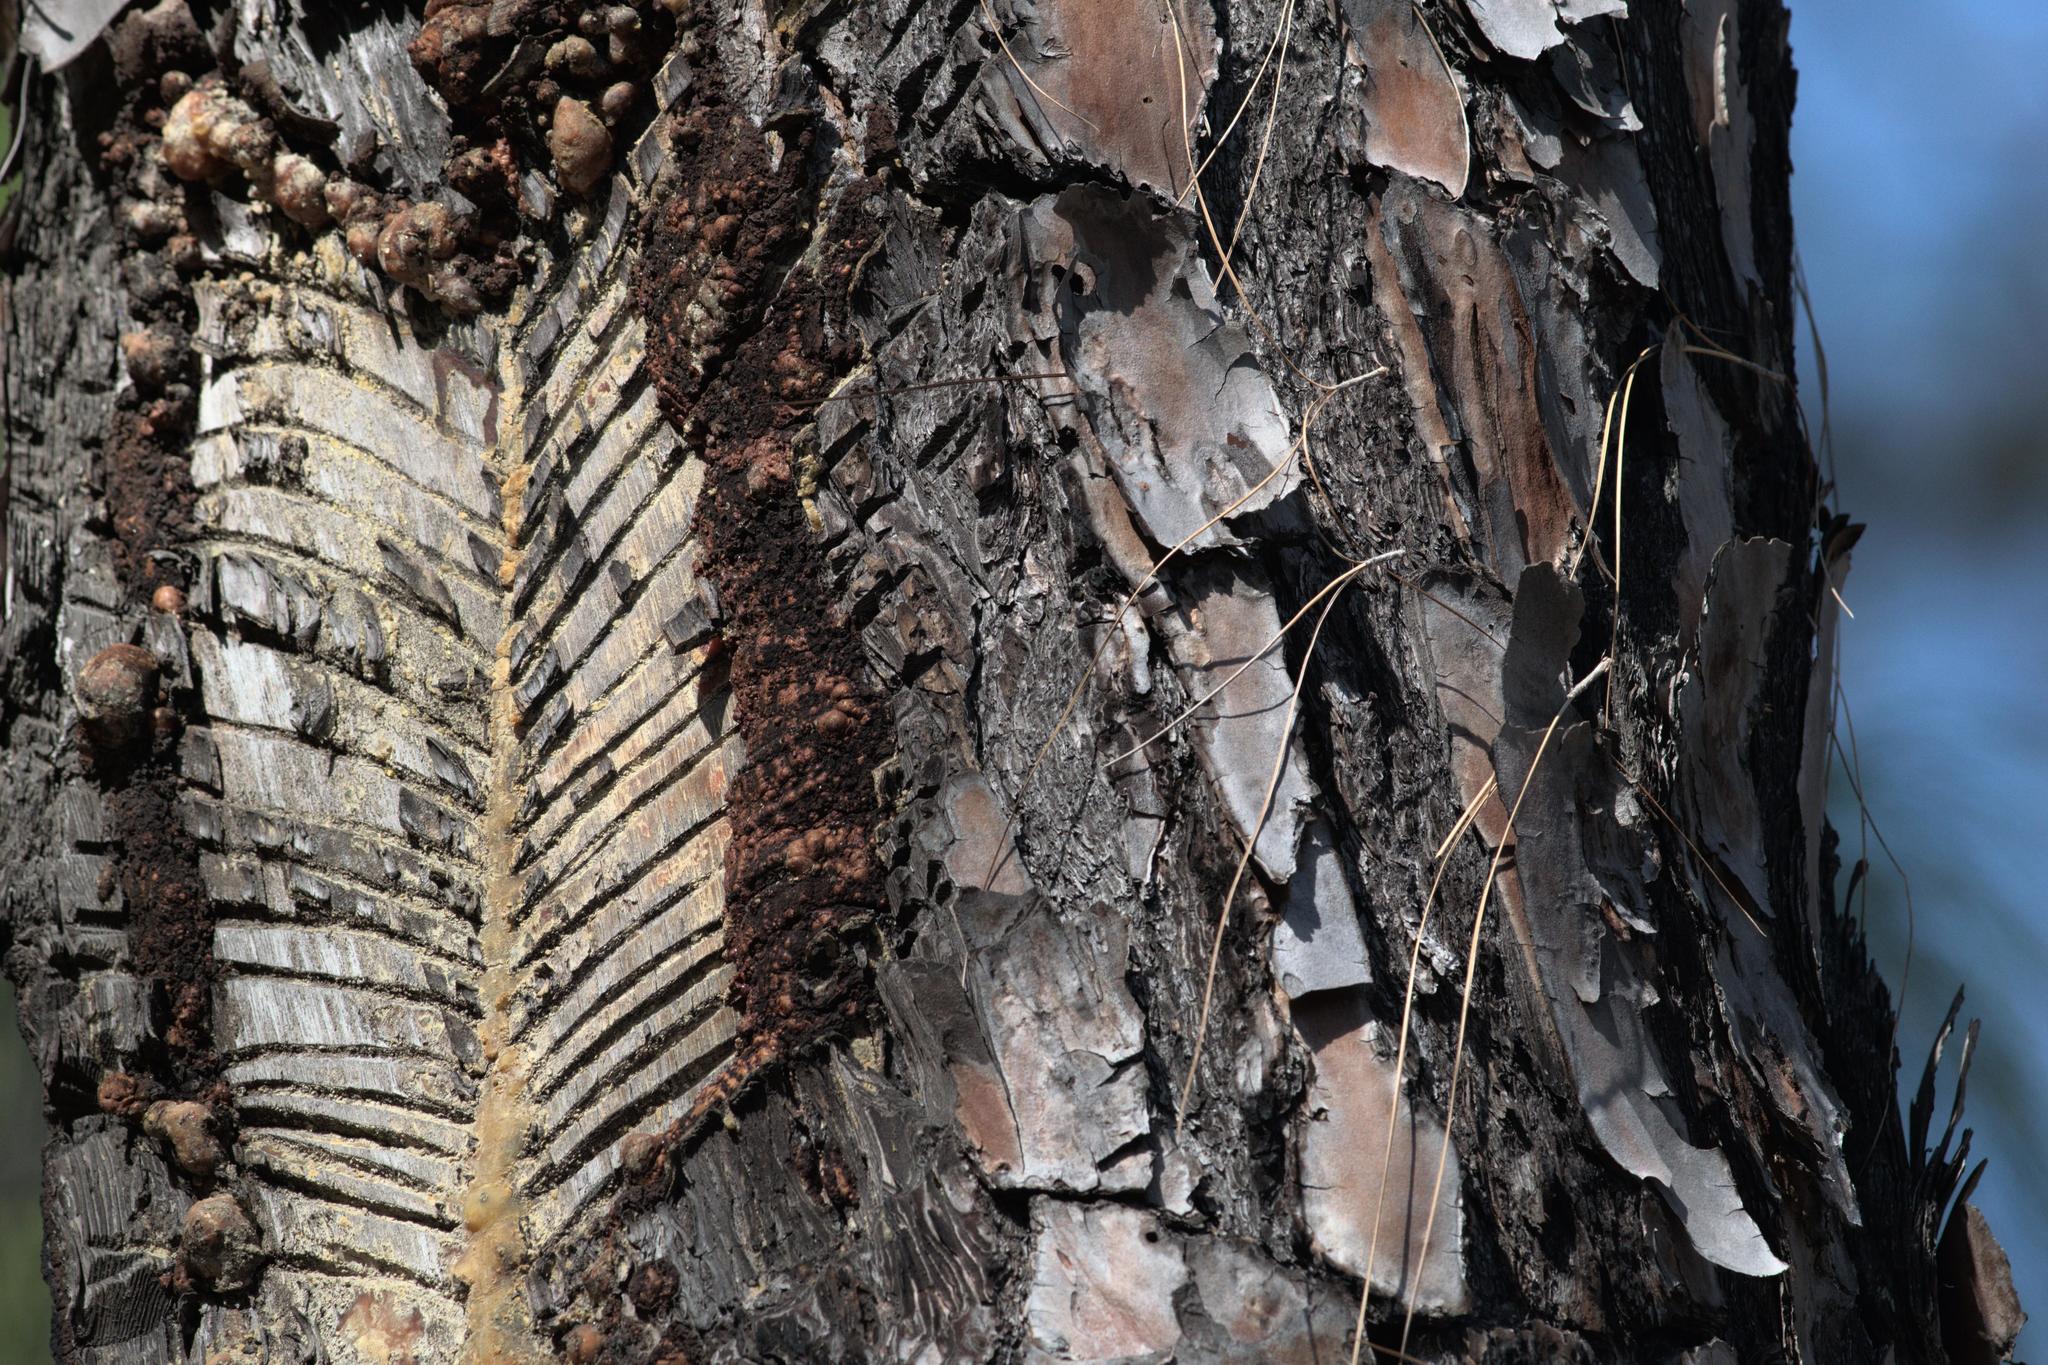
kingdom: Plantae
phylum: Tracheophyta
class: Pinopsida
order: Pinales
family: Pinaceae
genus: Pinus
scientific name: Pinus roxburghii
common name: Chir pine
